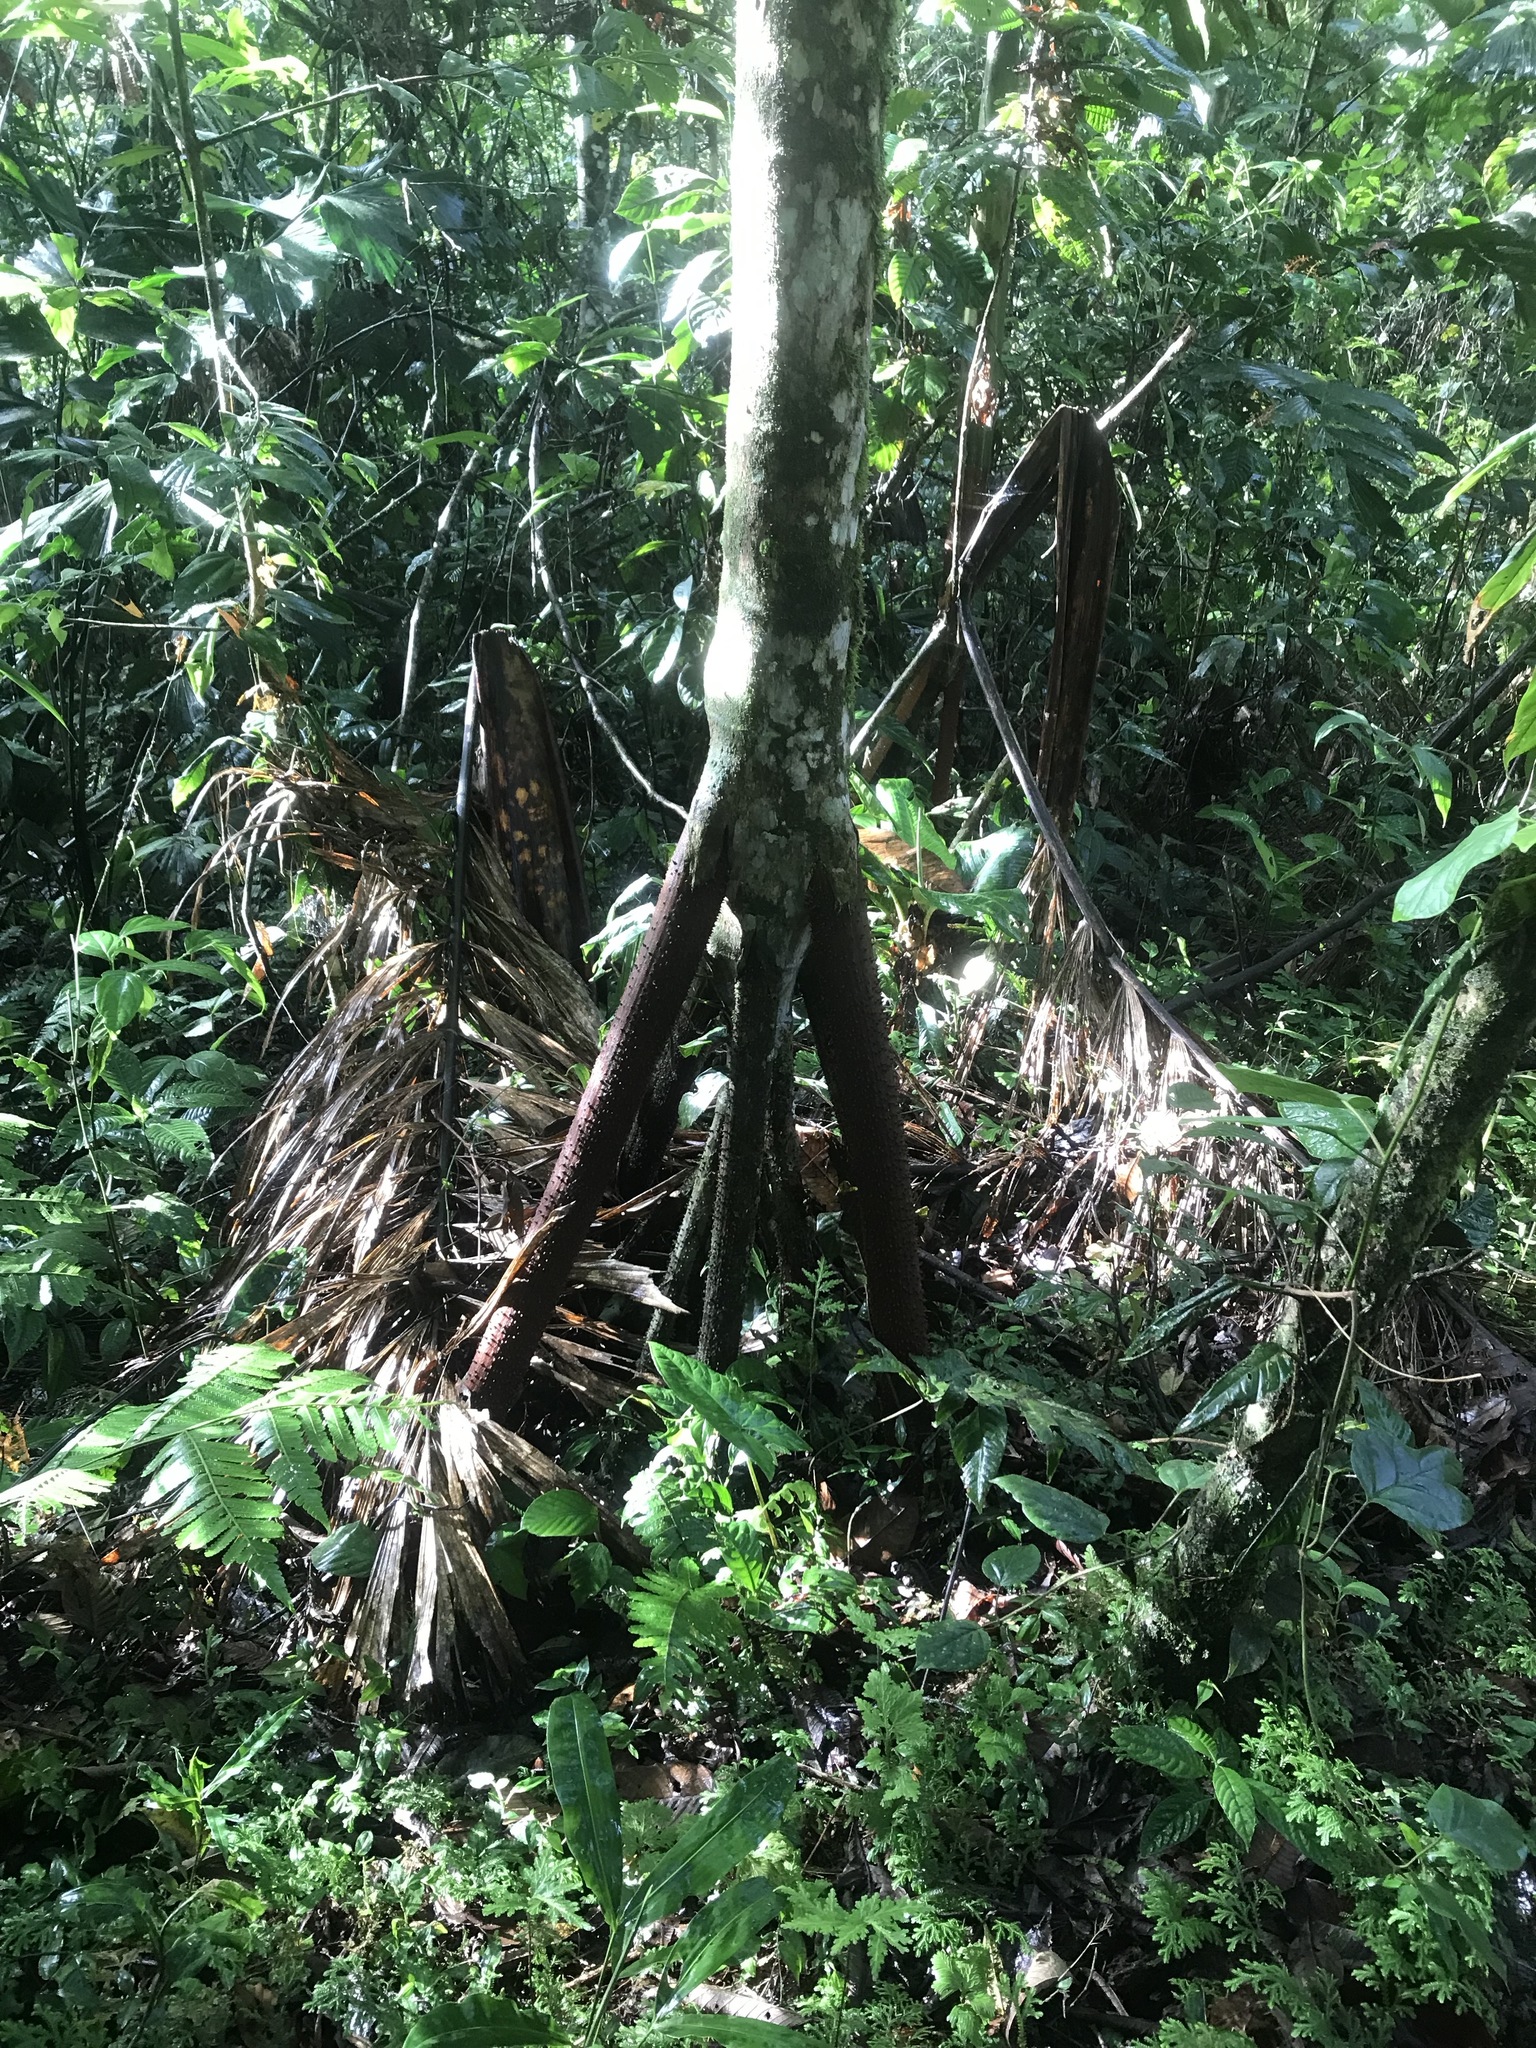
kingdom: Plantae
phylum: Tracheophyta
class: Liliopsida
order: Arecales
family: Arecaceae
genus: Socratea
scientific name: Socratea exorrhiza
